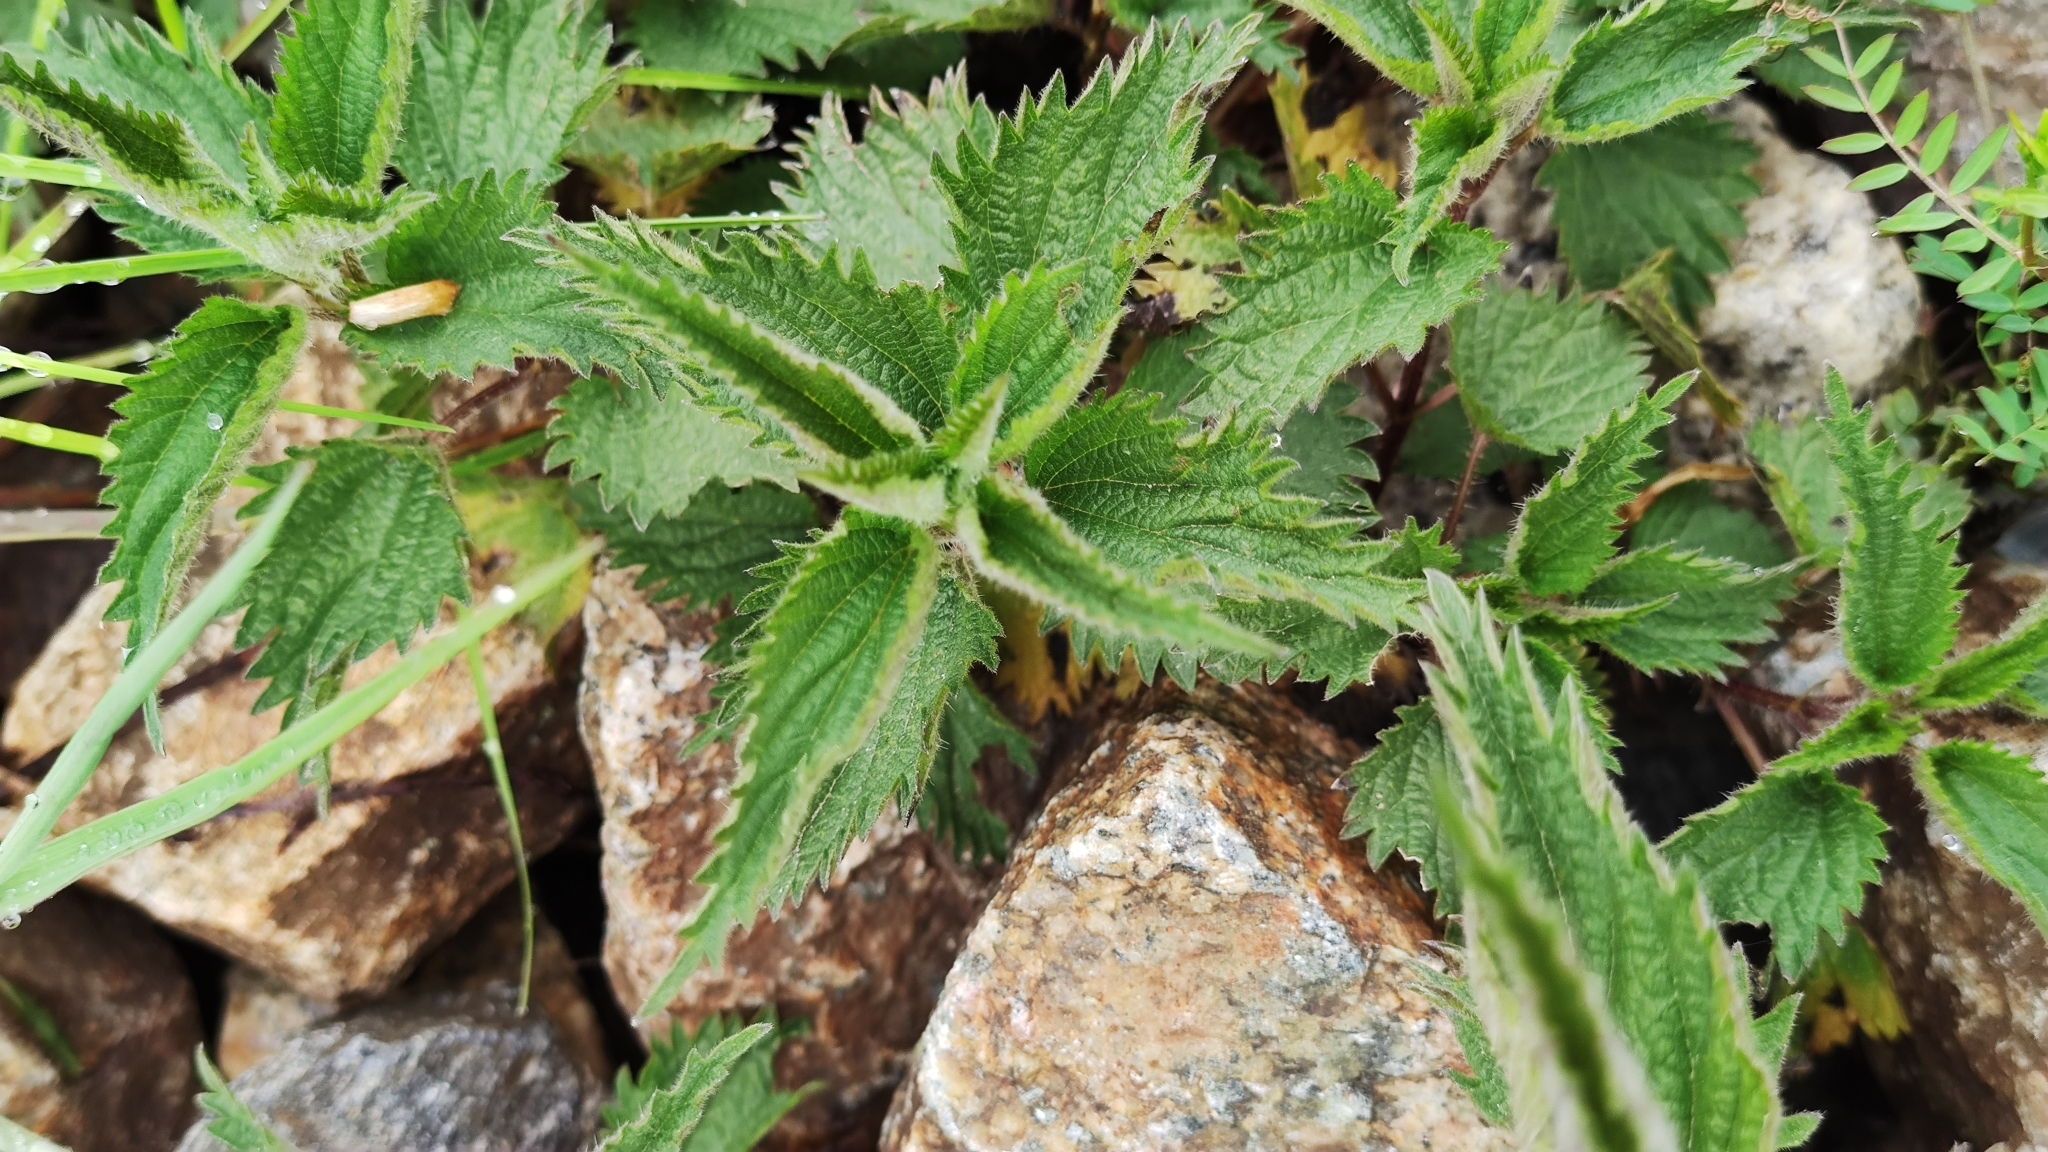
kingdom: Plantae
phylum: Tracheophyta
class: Magnoliopsida
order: Rosales
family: Urticaceae
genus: Urtica
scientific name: Urtica dioica
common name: Common nettle
